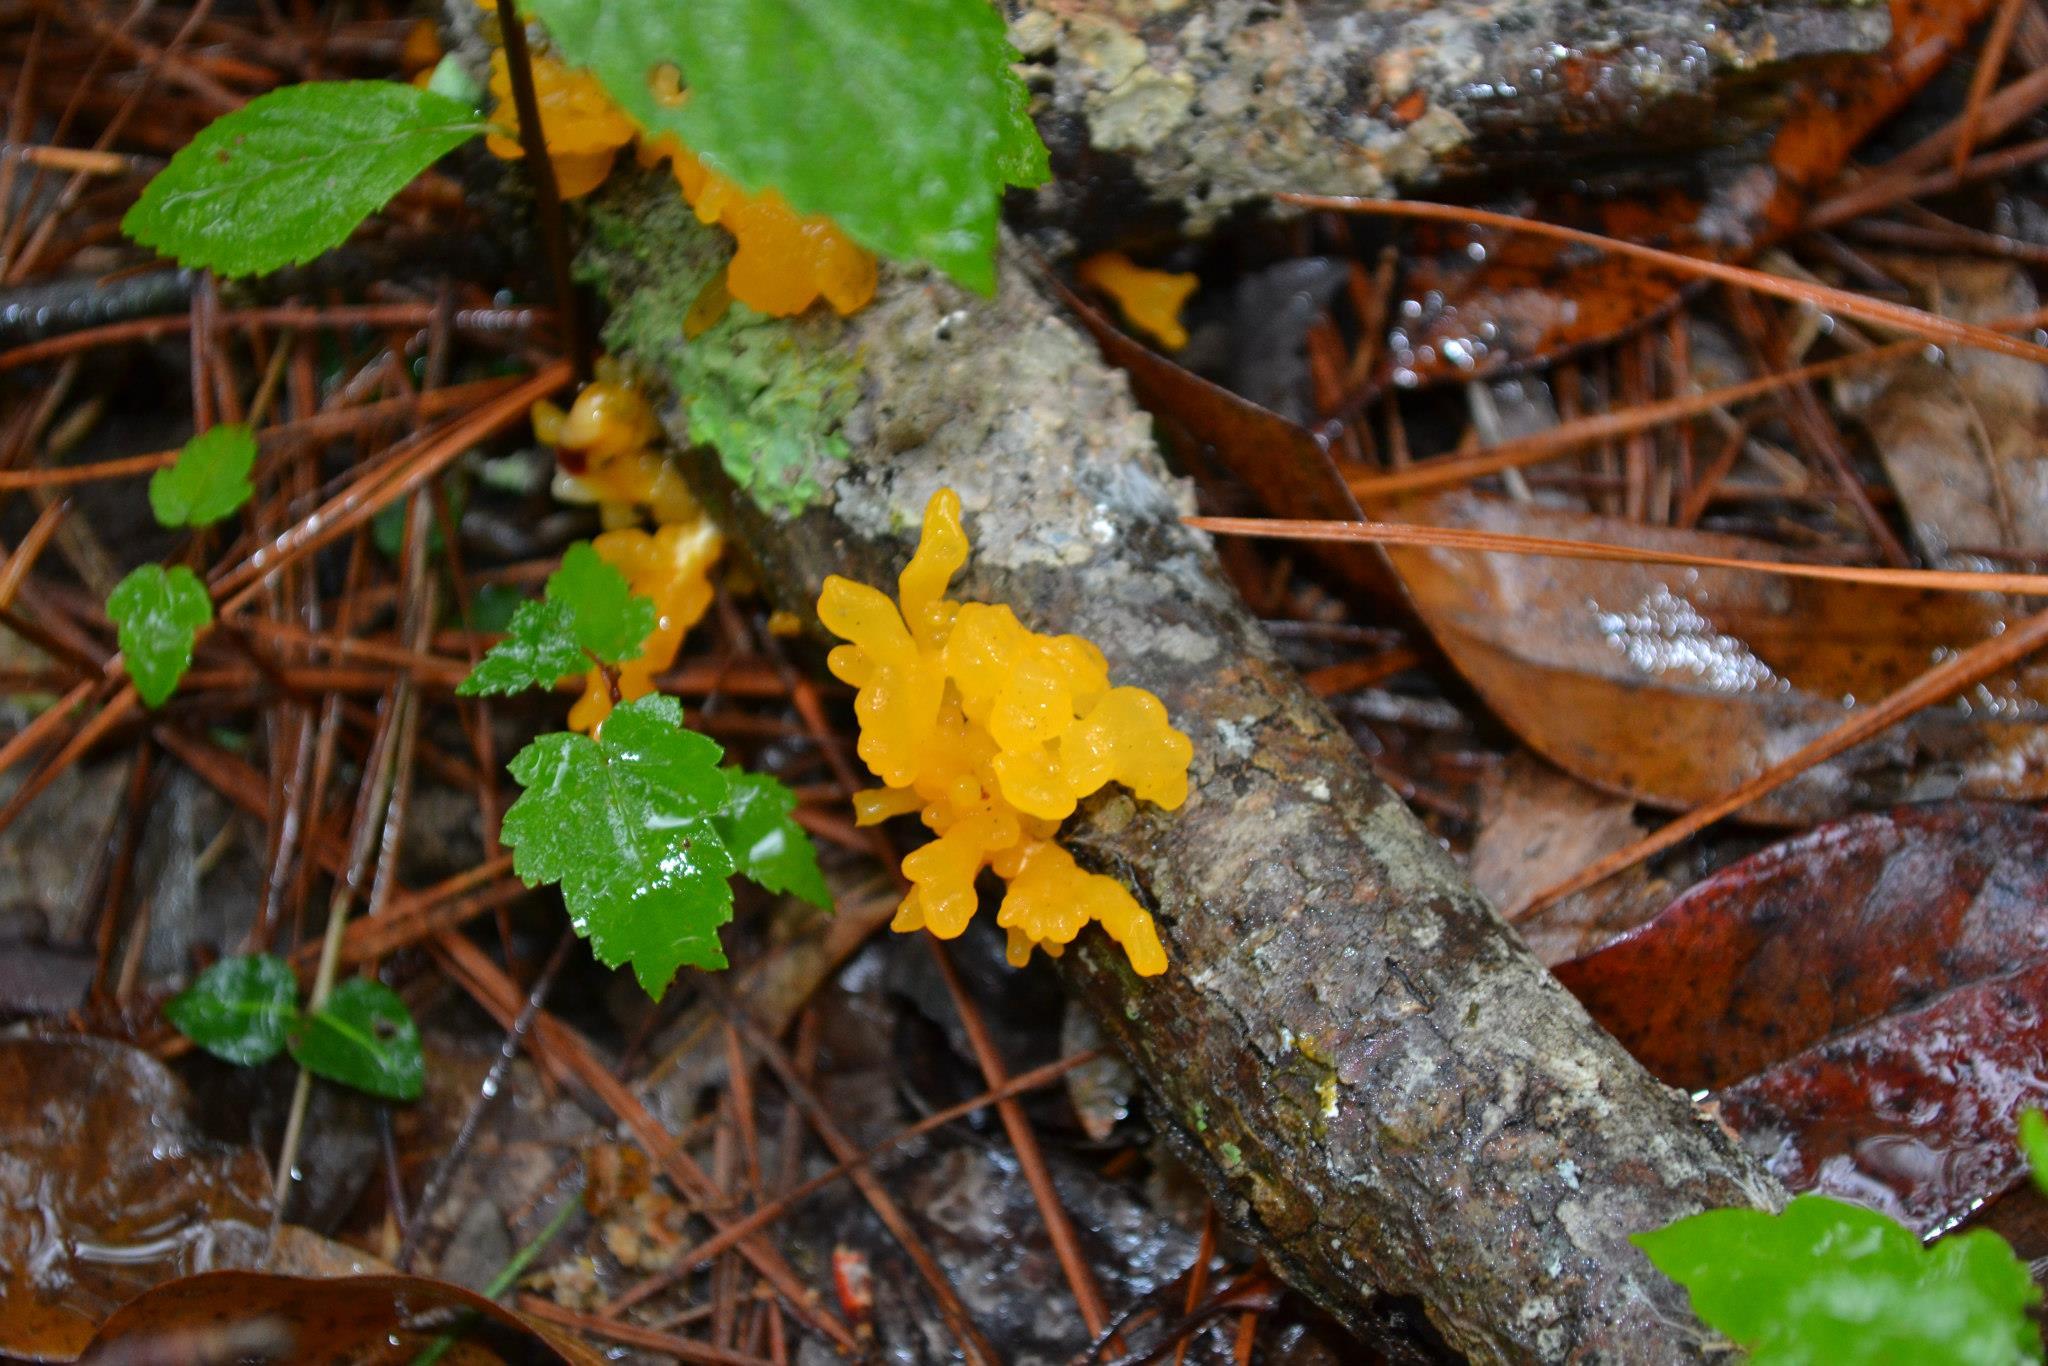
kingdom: Fungi
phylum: Basidiomycota
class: Dacrymycetes
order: Dacrymycetales
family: Dacrymycetaceae
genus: Dacrymyces
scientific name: Dacrymyces spathularius
